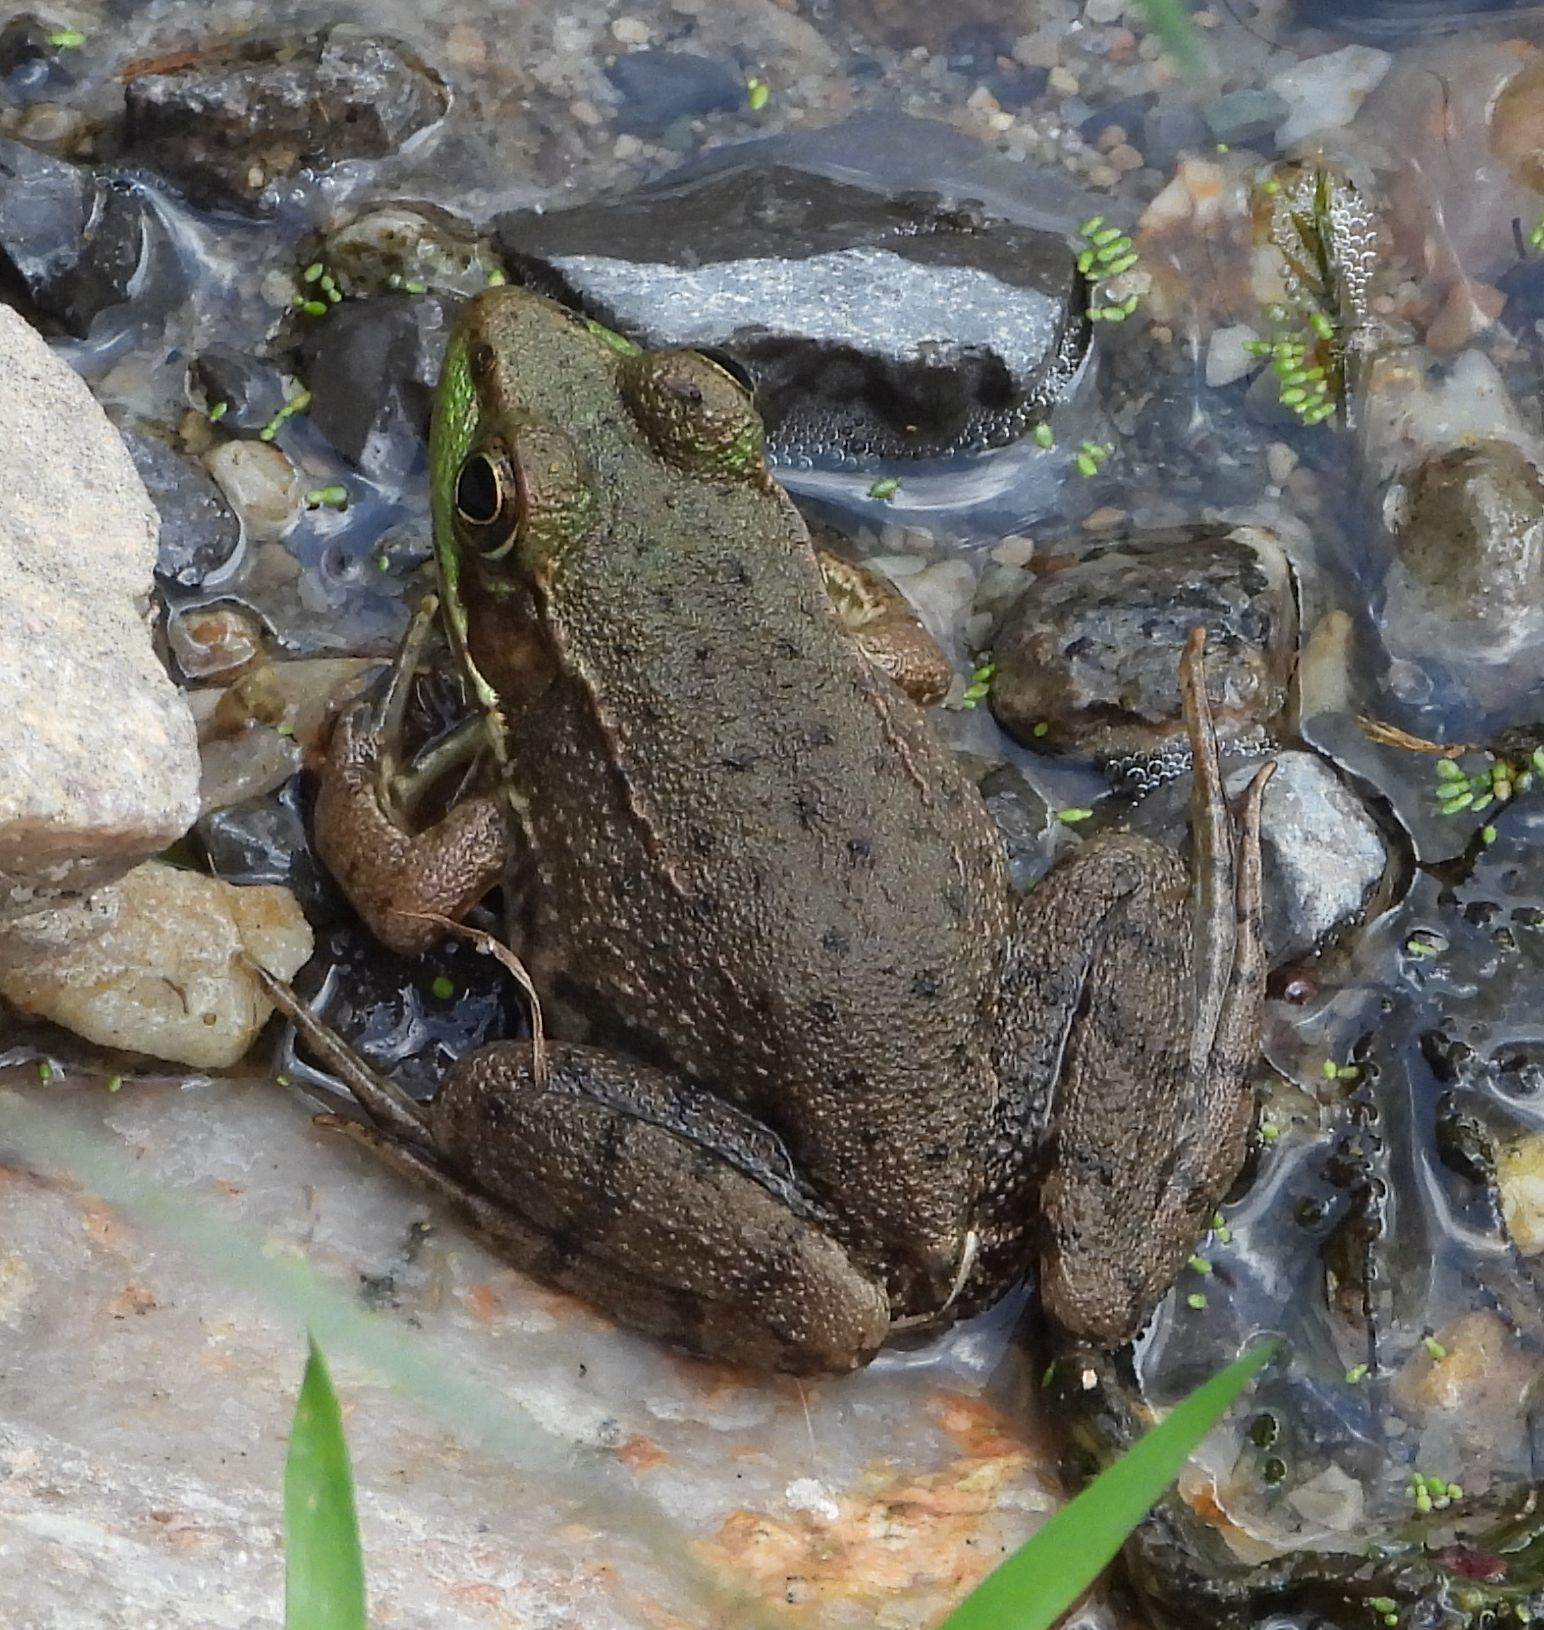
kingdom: Animalia
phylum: Chordata
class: Amphibia
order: Anura
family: Ranidae
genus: Lithobates
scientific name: Lithobates clamitans
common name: Green frog
